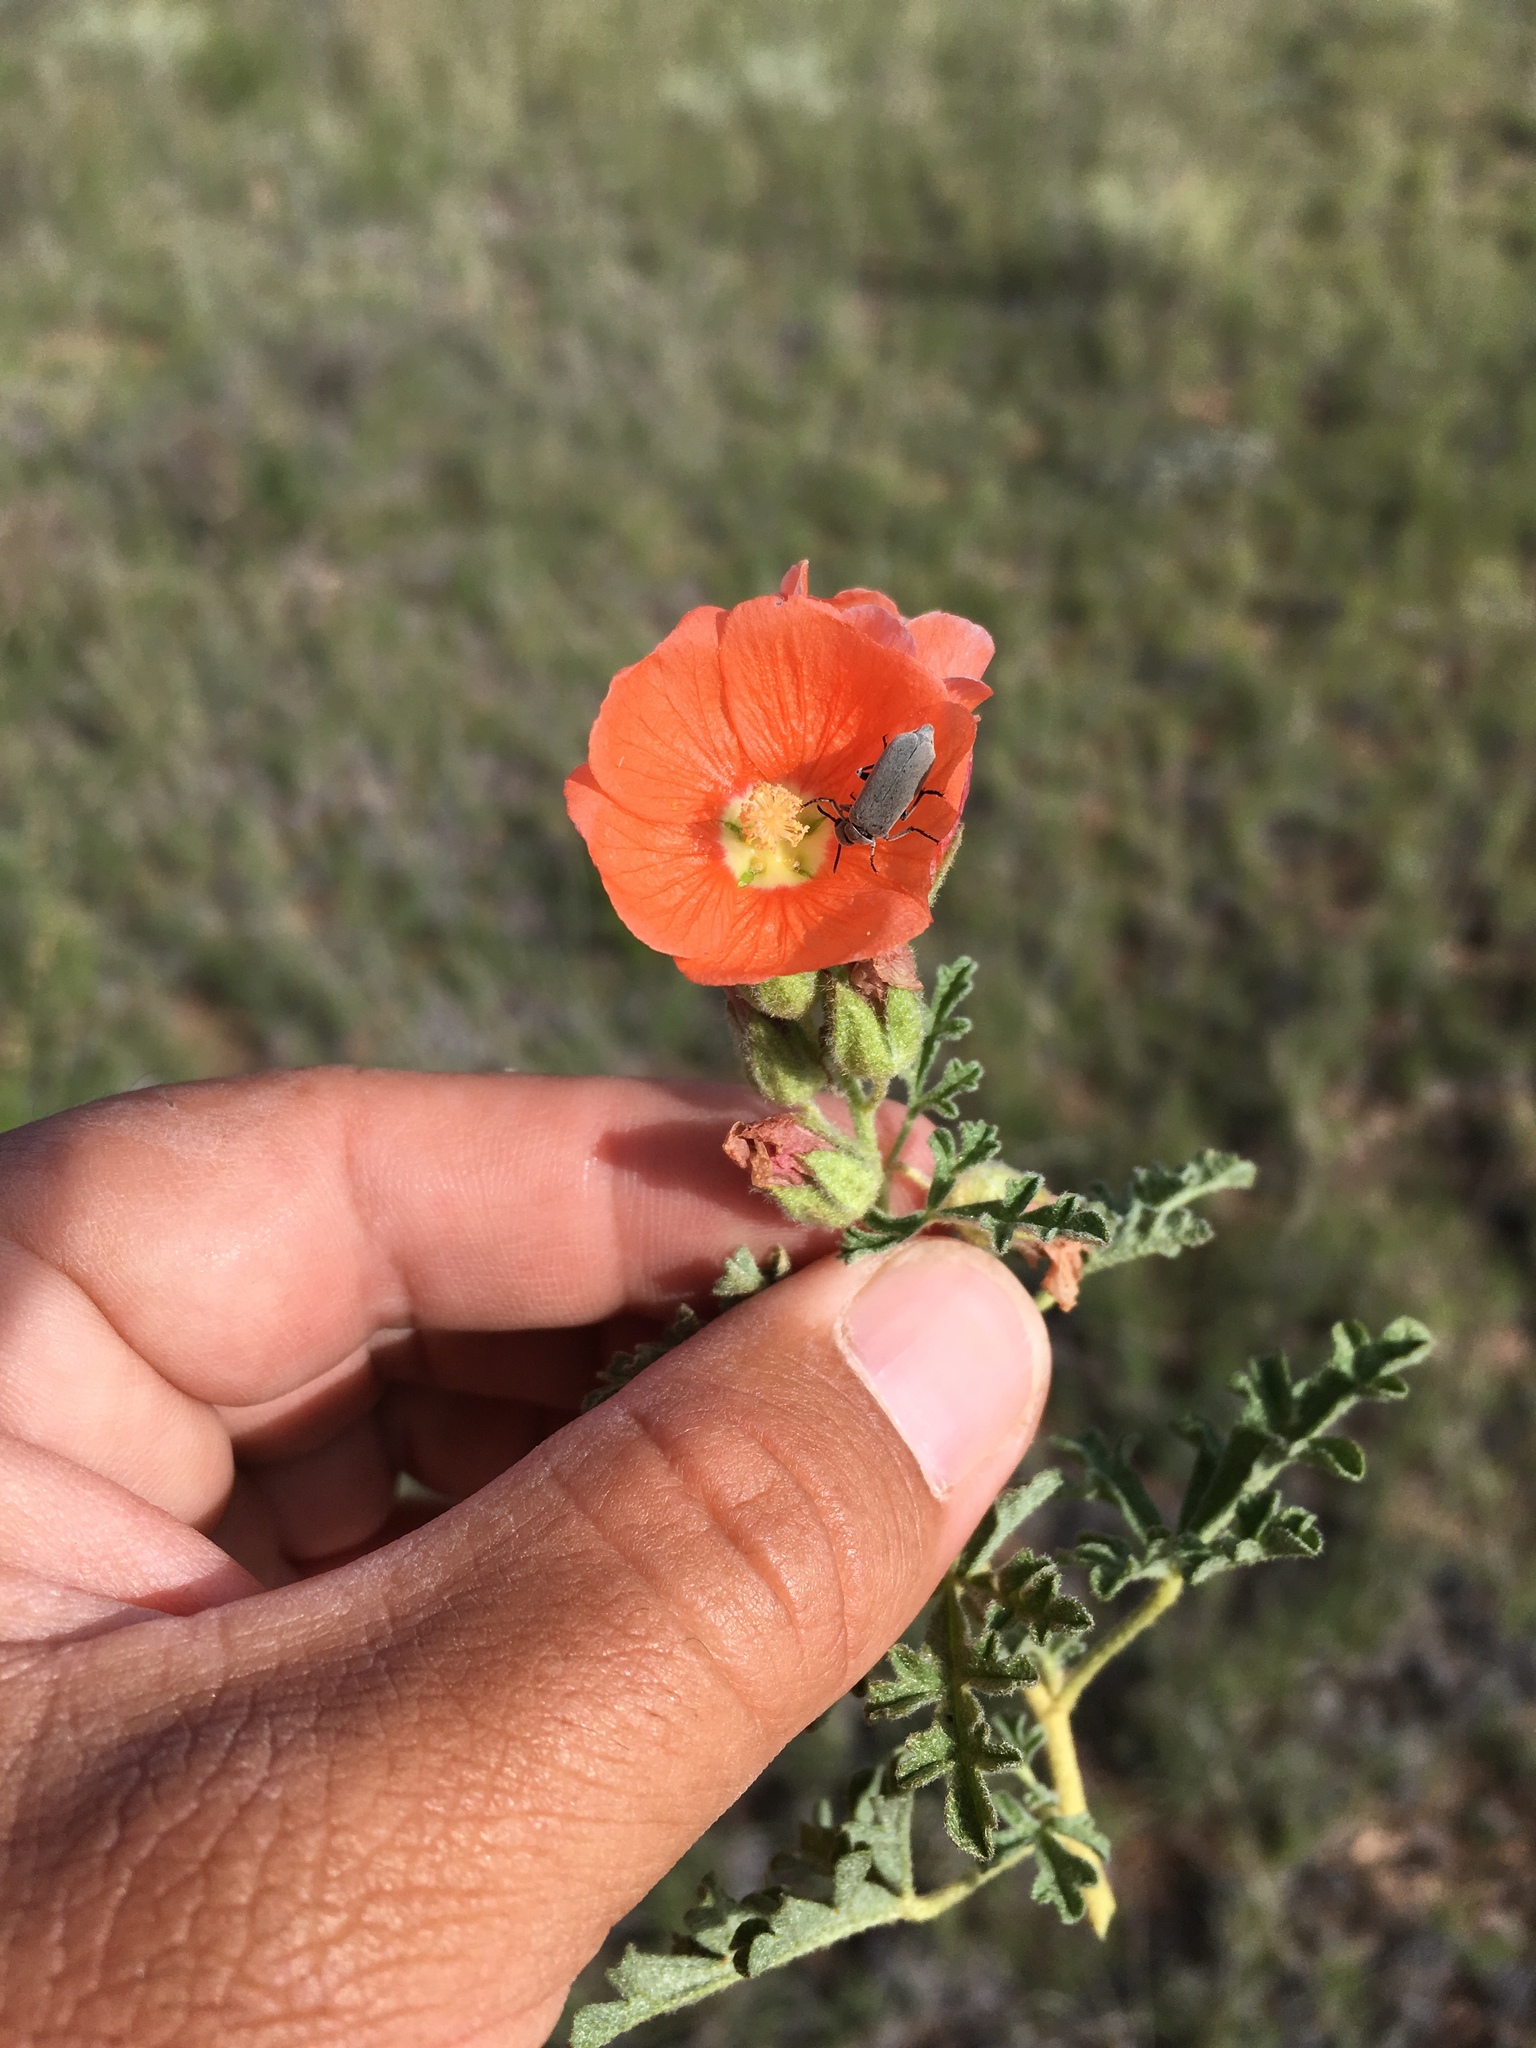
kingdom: Plantae
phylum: Tracheophyta
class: Magnoliopsida
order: Malvales
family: Malvaceae
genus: Sphaeralcea
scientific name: Sphaeralcea coccinea
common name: Moss-rose
